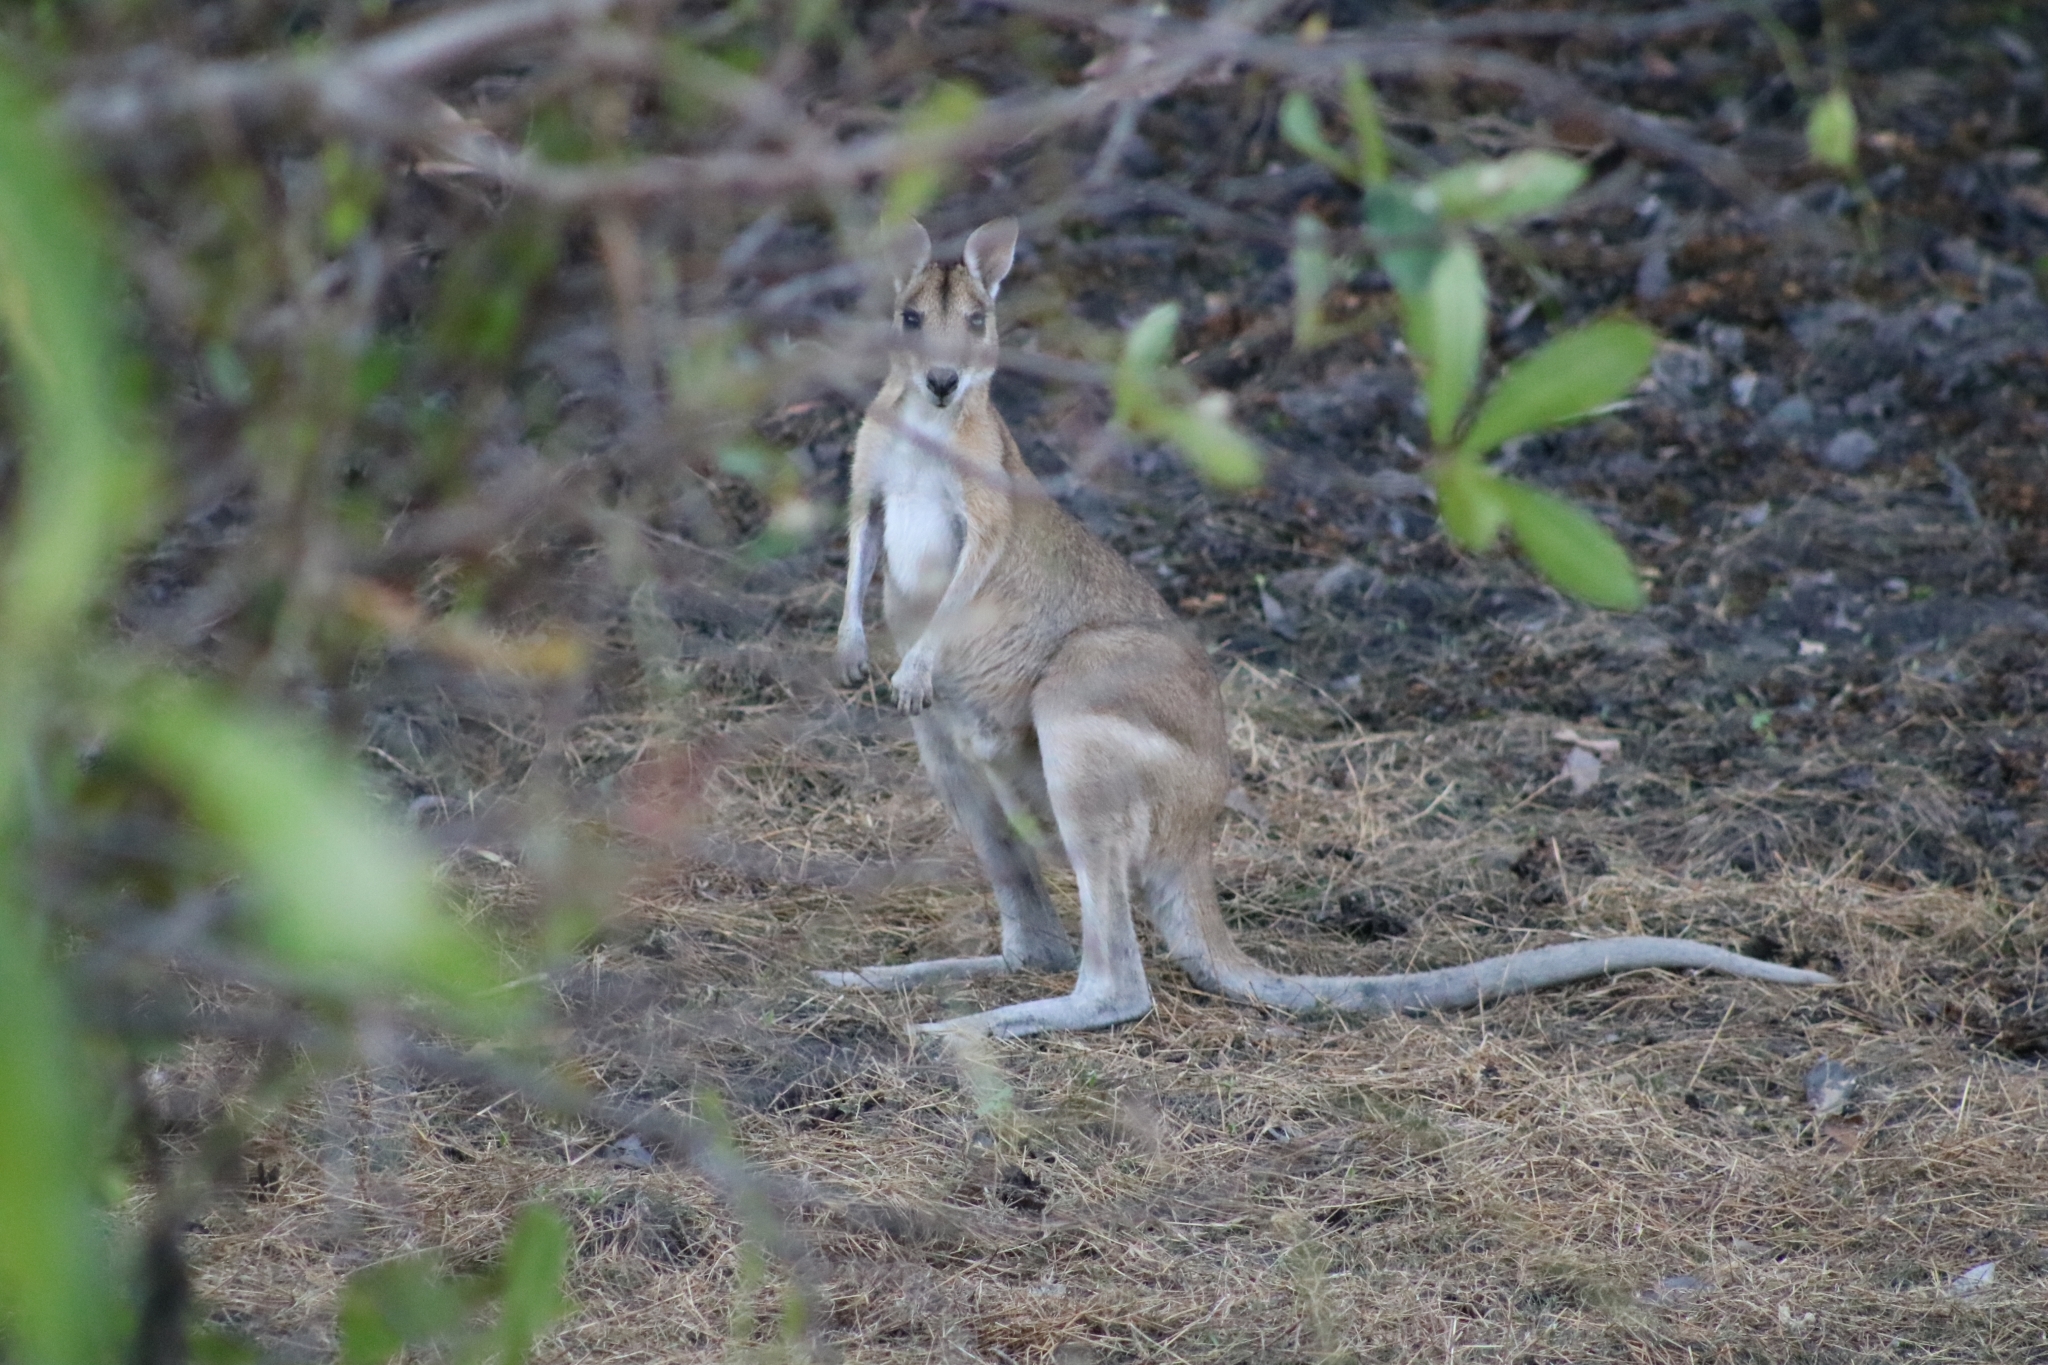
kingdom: Animalia
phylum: Chordata
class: Mammalia
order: Diprotodontia
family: Macropodidae
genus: Macropus
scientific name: Macropus agilis
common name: Agile wallaby
